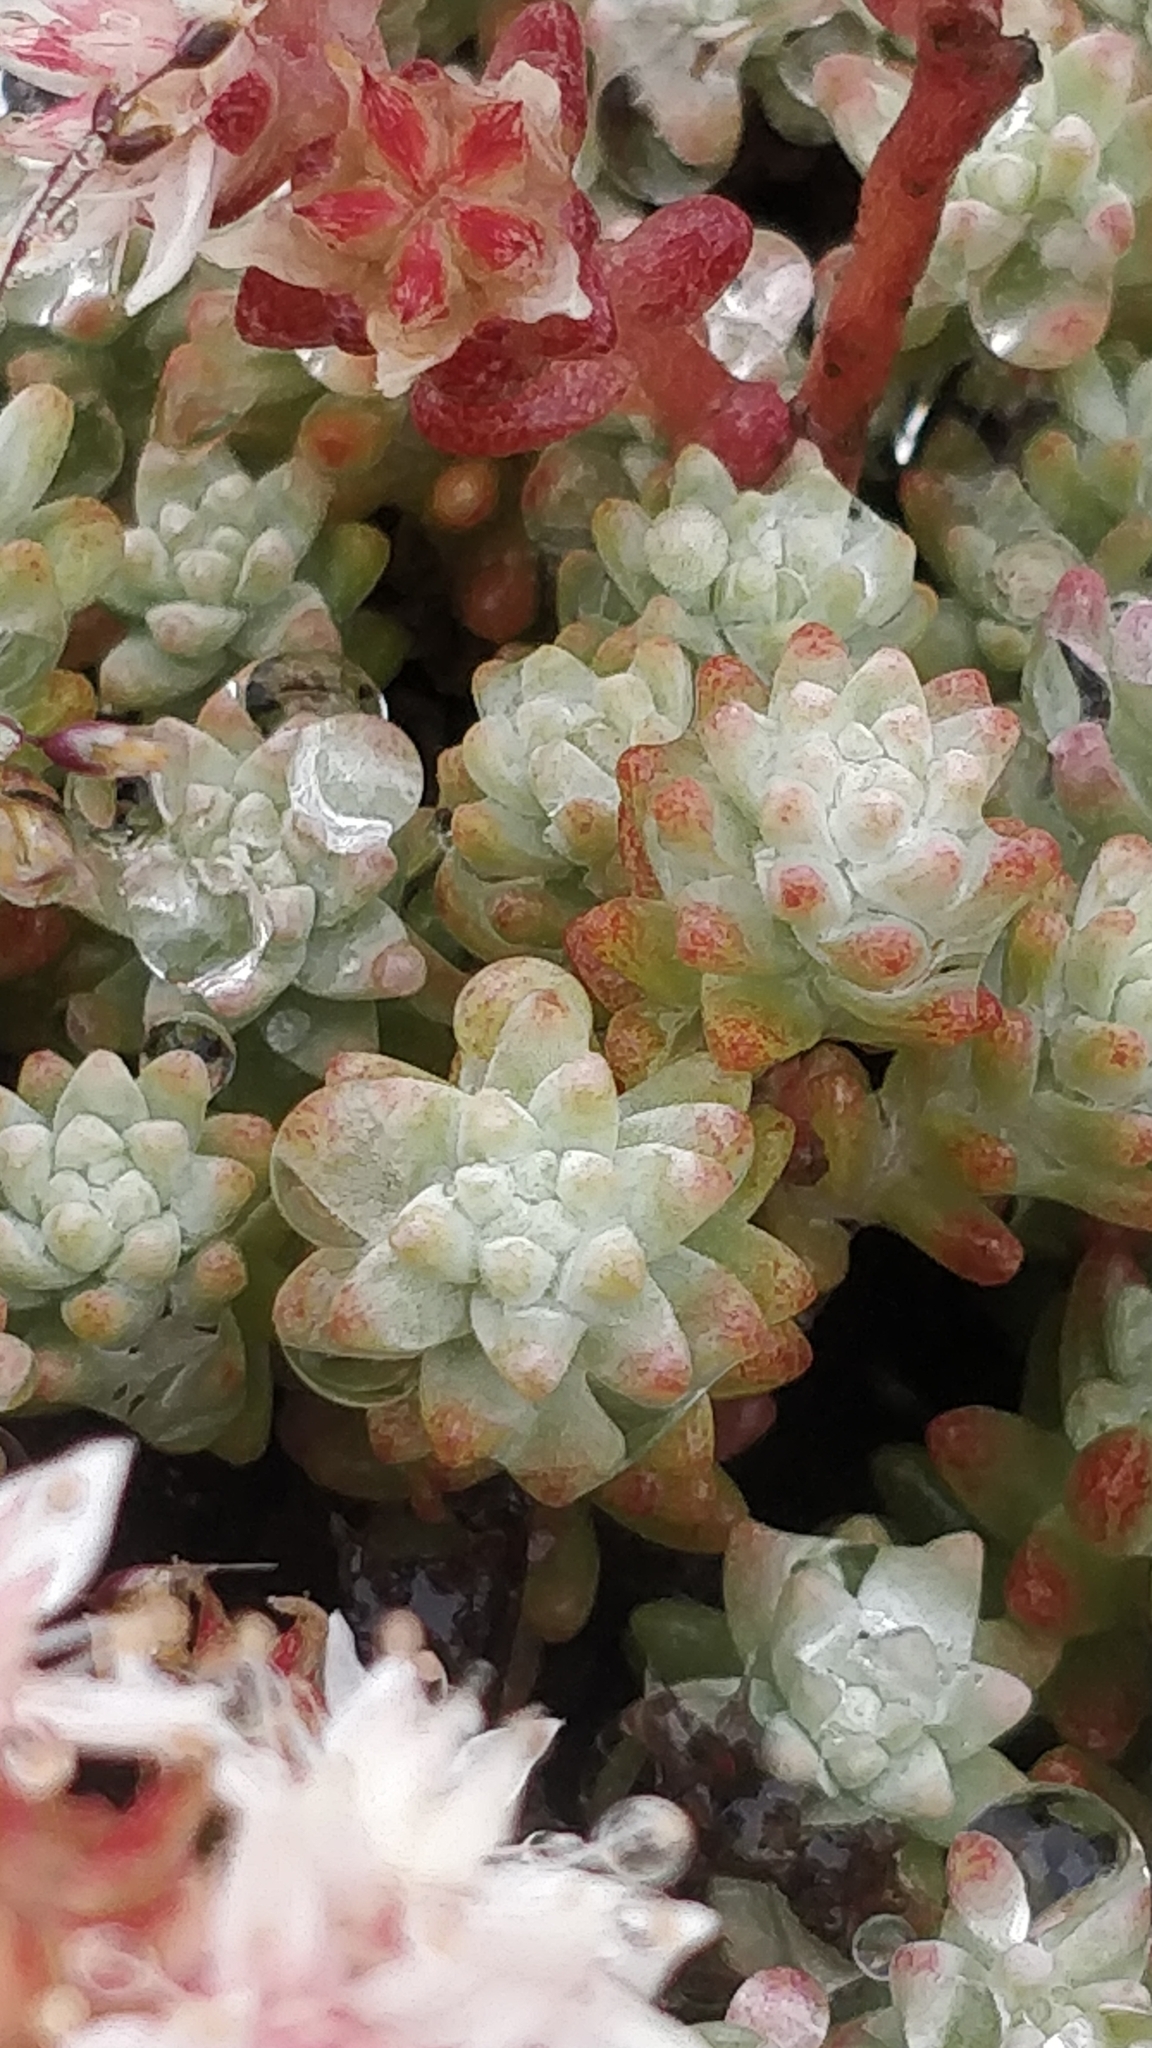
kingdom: Plantae
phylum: Tracheophyta
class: Magnoliopsida
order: Saxifragales
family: Crassulaceae
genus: Sedum
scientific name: Sedum farinosum
